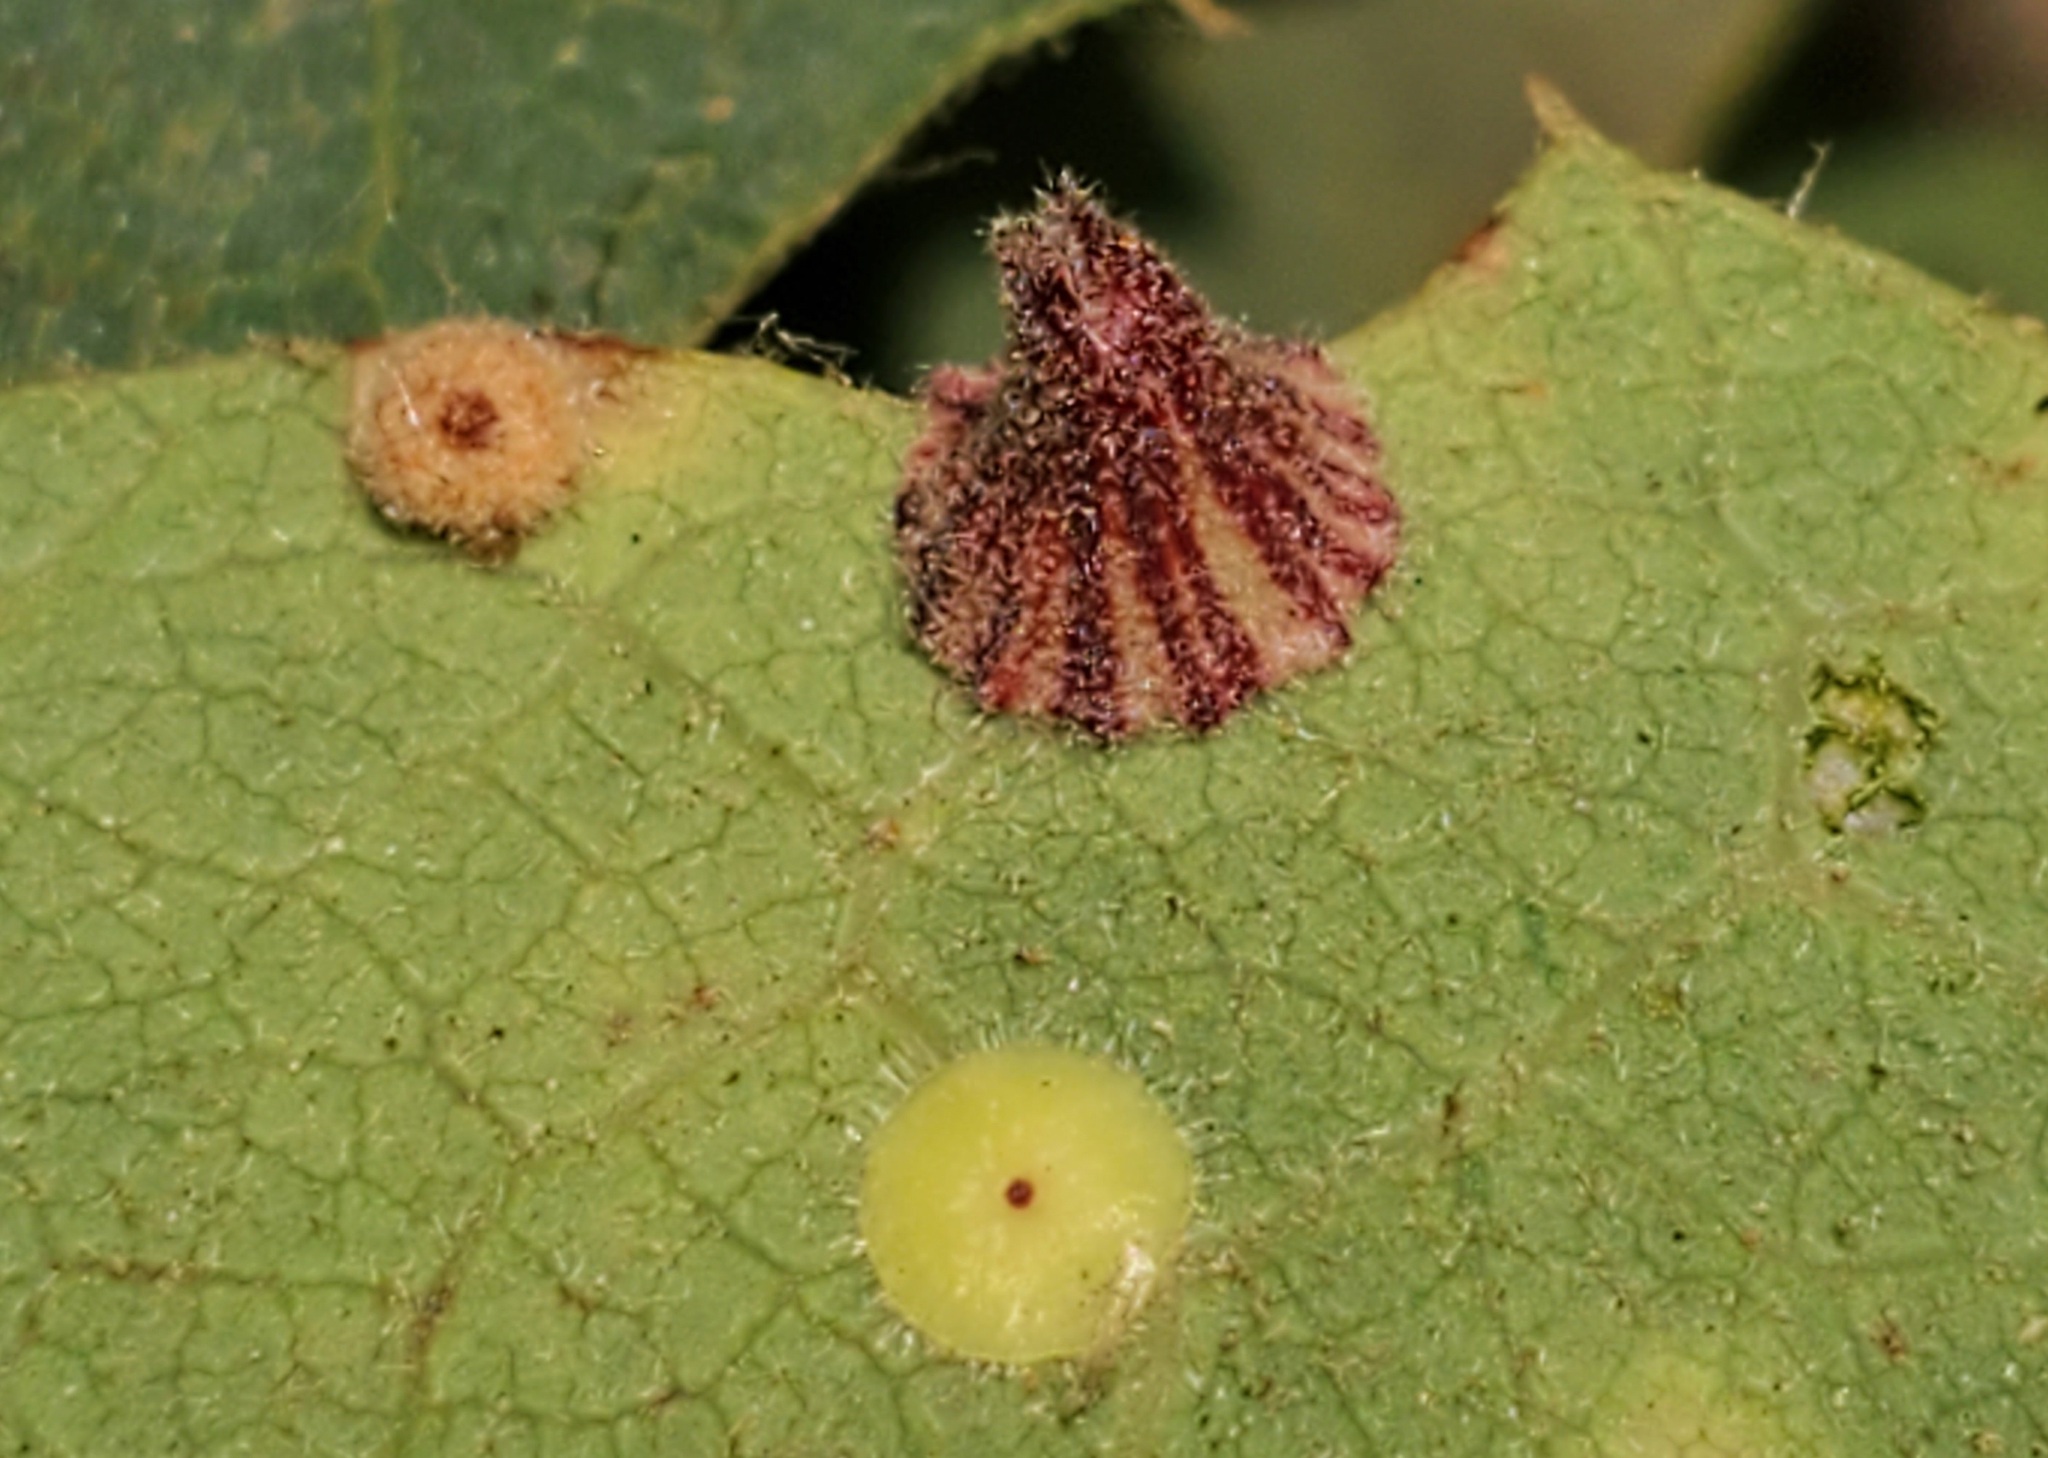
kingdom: Animalia
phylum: Arthropoda
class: Insecta
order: Hymenoptera
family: Cynipidae
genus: Andricus
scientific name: Andricus
